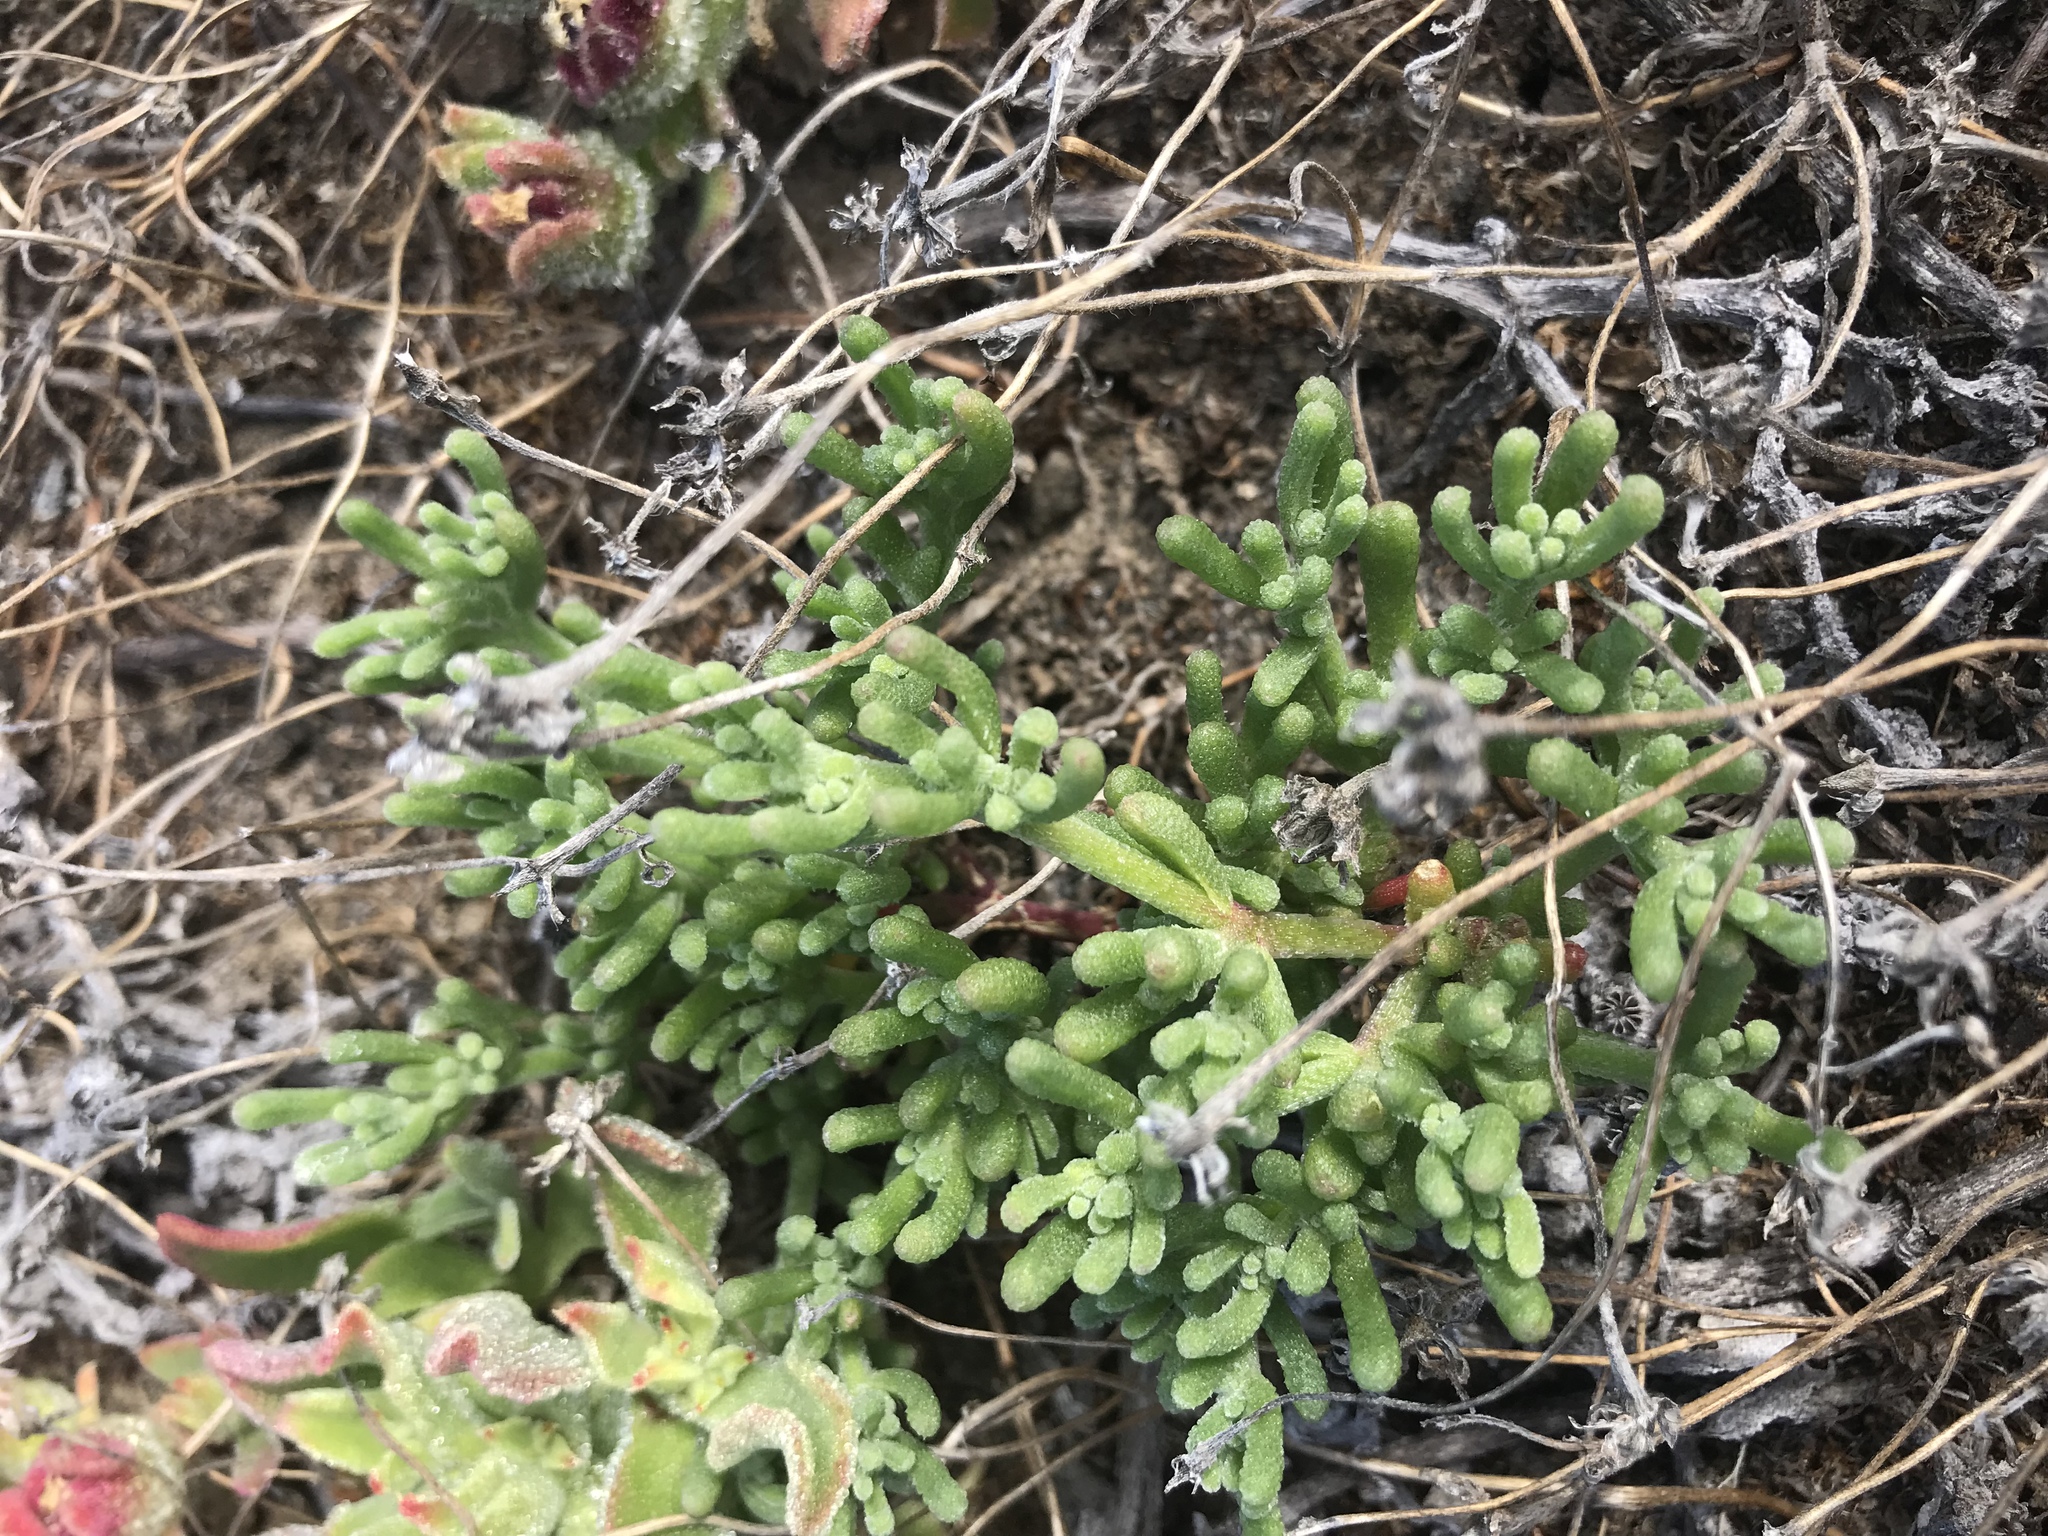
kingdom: Plantae
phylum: Tracheophyta
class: Magnoliopsida
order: Caryophyllales
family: Aizoaceae
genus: Mesembryanthemum
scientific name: Mesembryanthemum nodiflorum
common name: Slenderleaf iceplant
